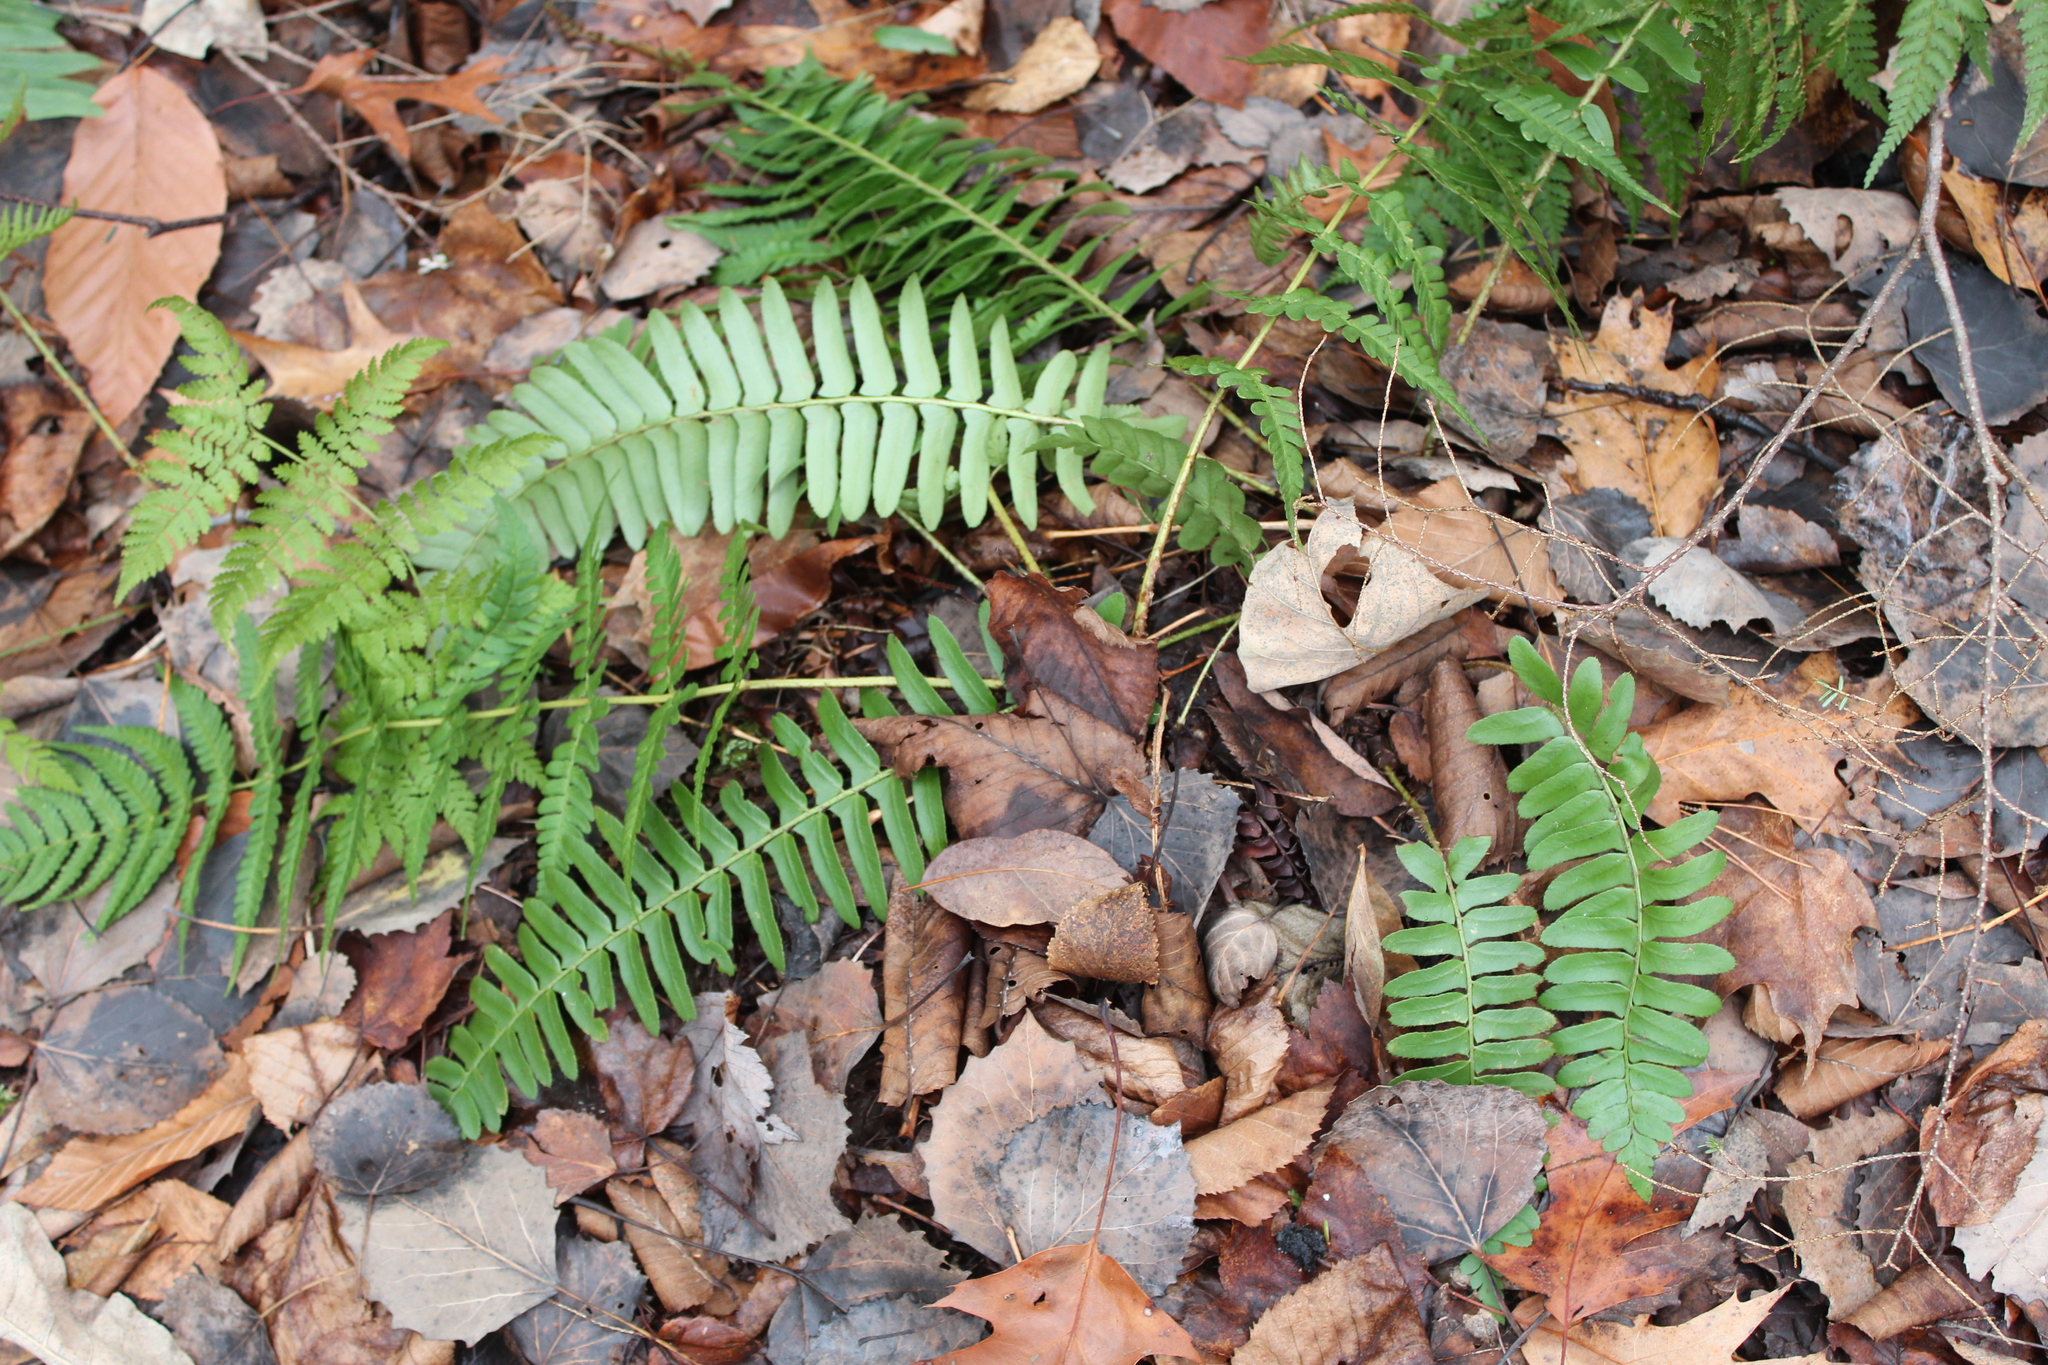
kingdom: Plantae
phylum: Tracheophyta
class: Polypodiopsida
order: Polypodiales
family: Dryopteridaceae
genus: Polystichum
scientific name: Polystichum acrostichoides
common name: Christmas fern
